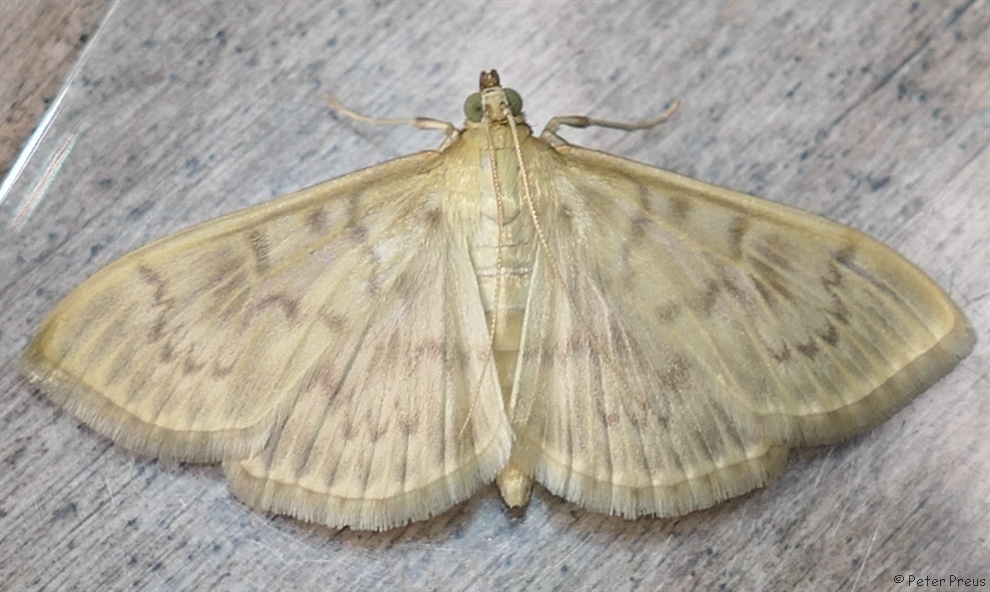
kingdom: Animalia
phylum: Arthropoda
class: Insecta
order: Lepidoptera
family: Crambidae
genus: Patania
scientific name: Patania ruralis
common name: Mother of pearl
